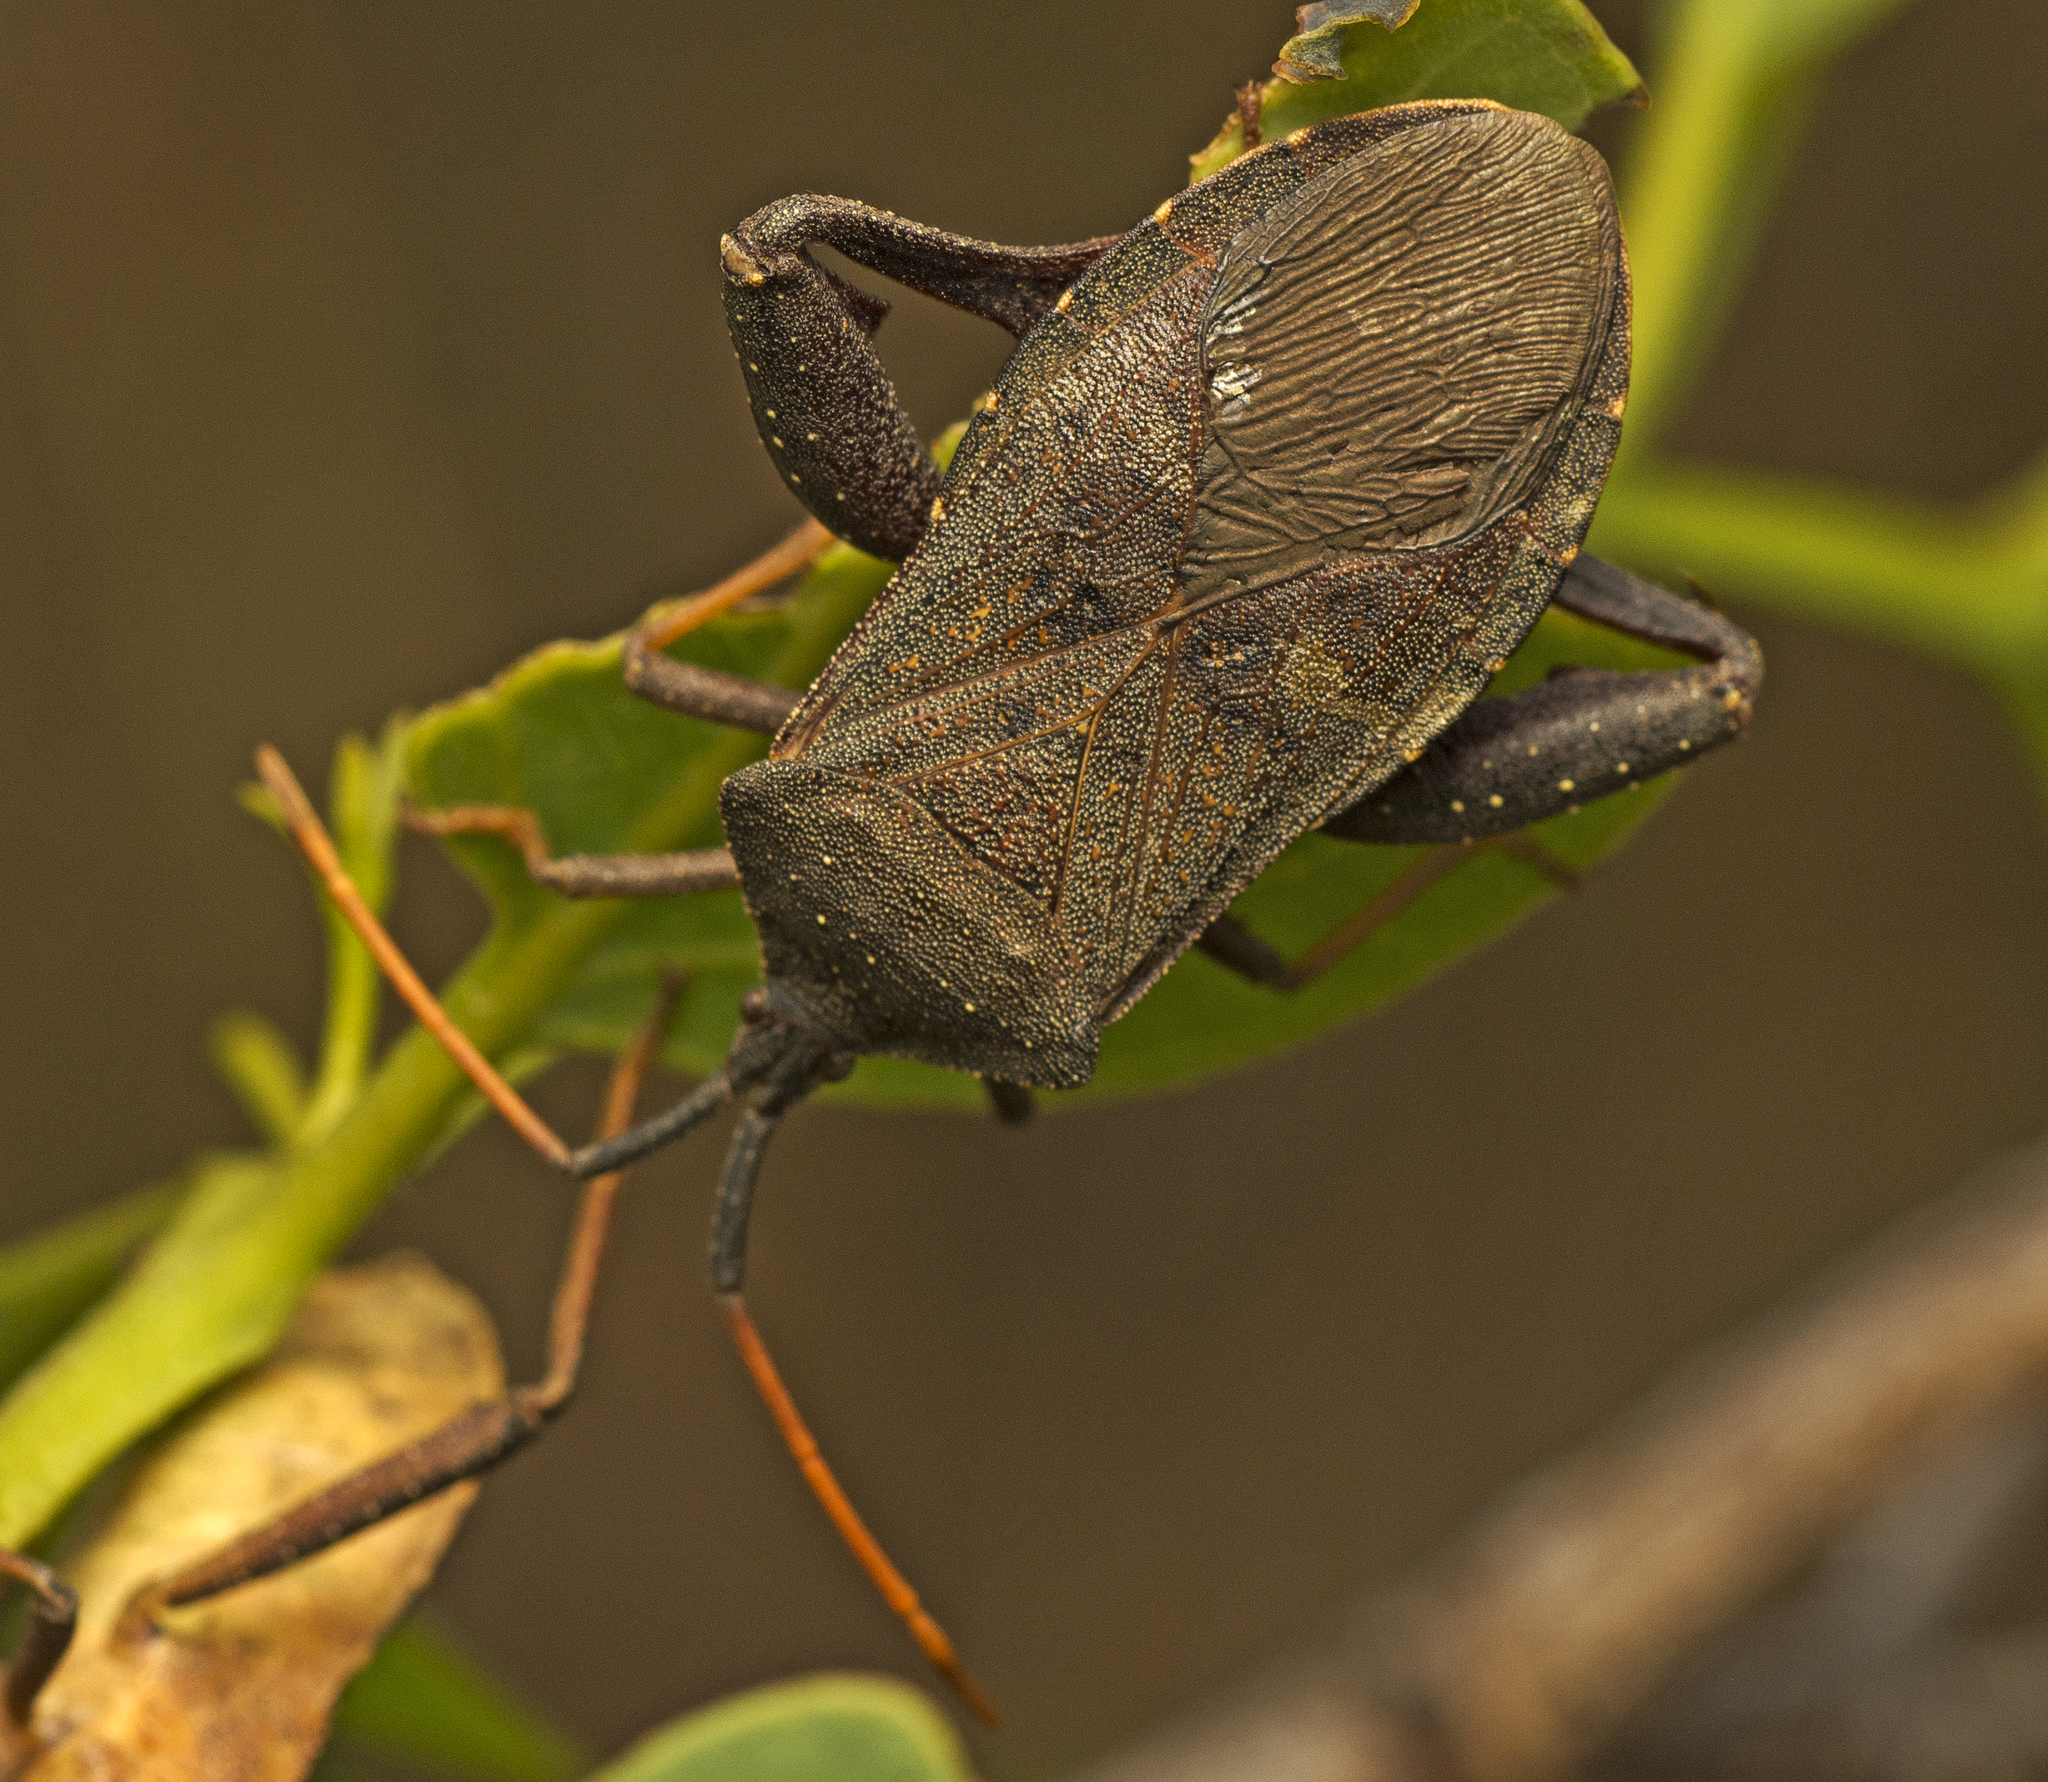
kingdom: Animalia
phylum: Arthropoda
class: Insecta
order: Hemiptera
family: Coreidae
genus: Amorbus
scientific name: Amorbus rubiginosus
